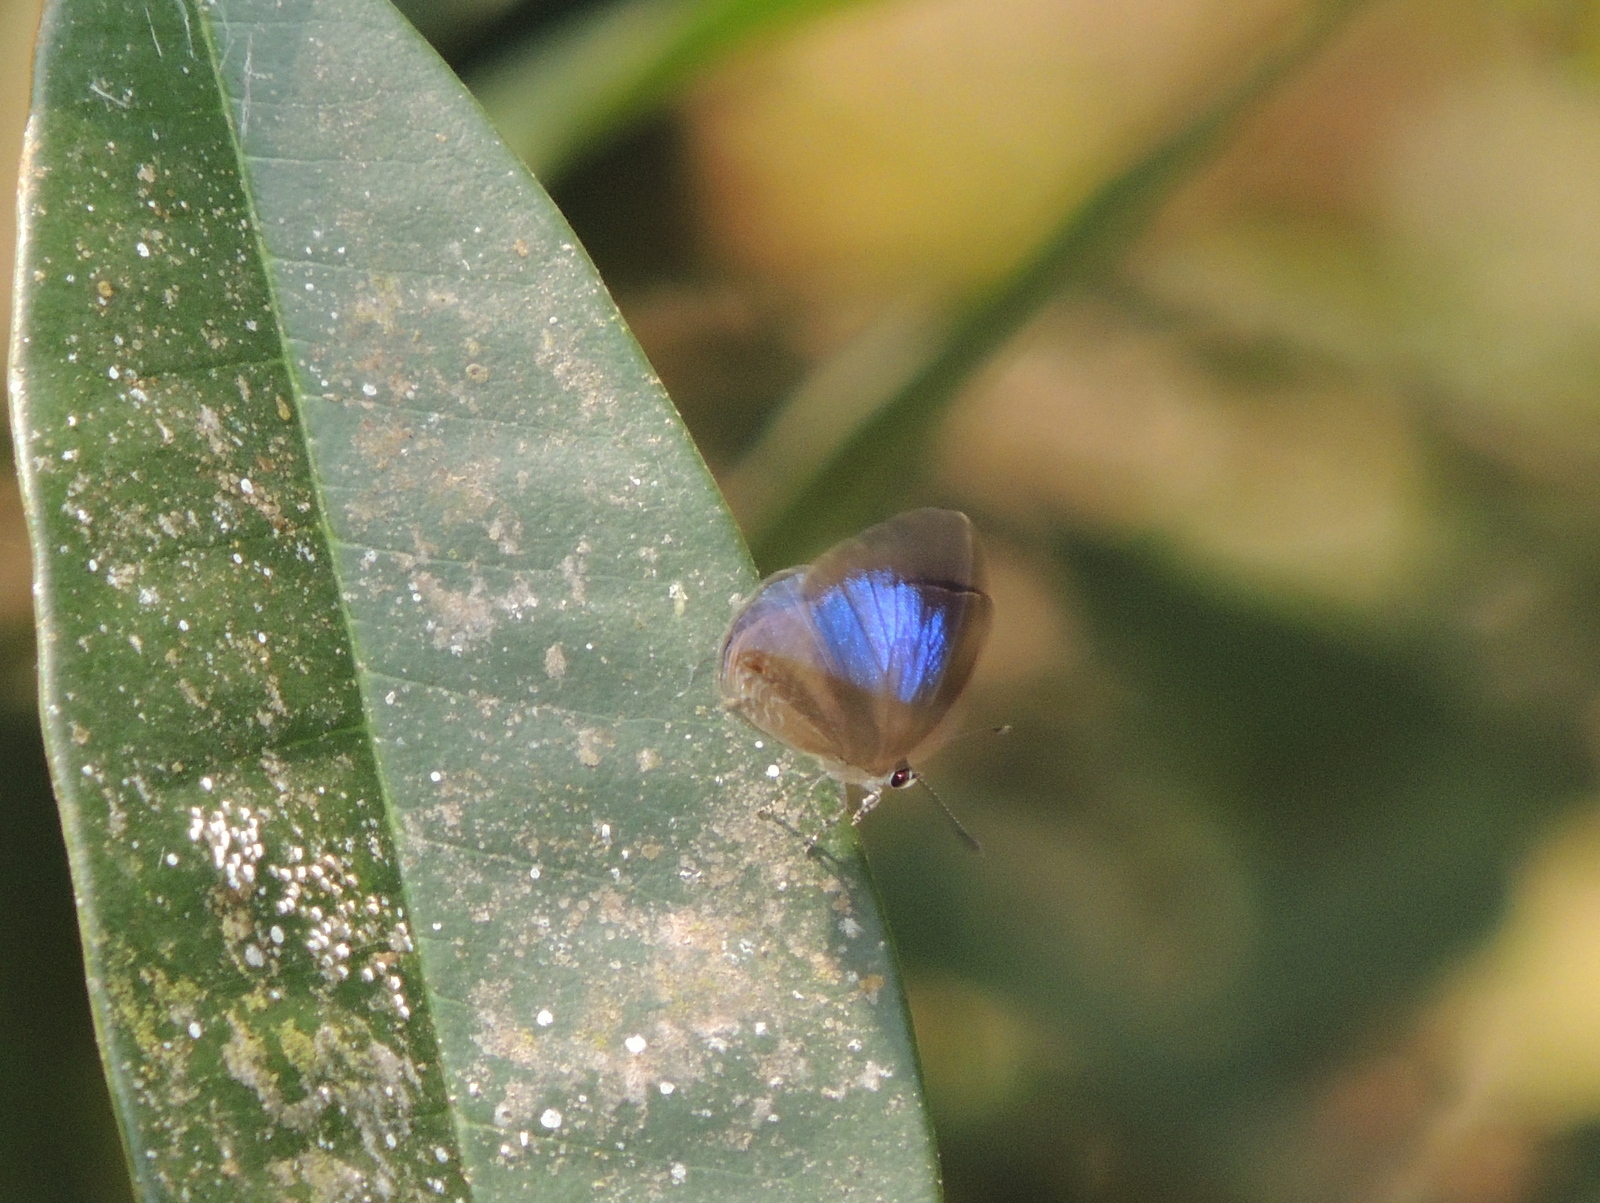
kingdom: Animalia
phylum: Arthropoda
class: Insecta
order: Lepidoptera
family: Lycaenidae
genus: Jamides
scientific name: Jamides bochus
